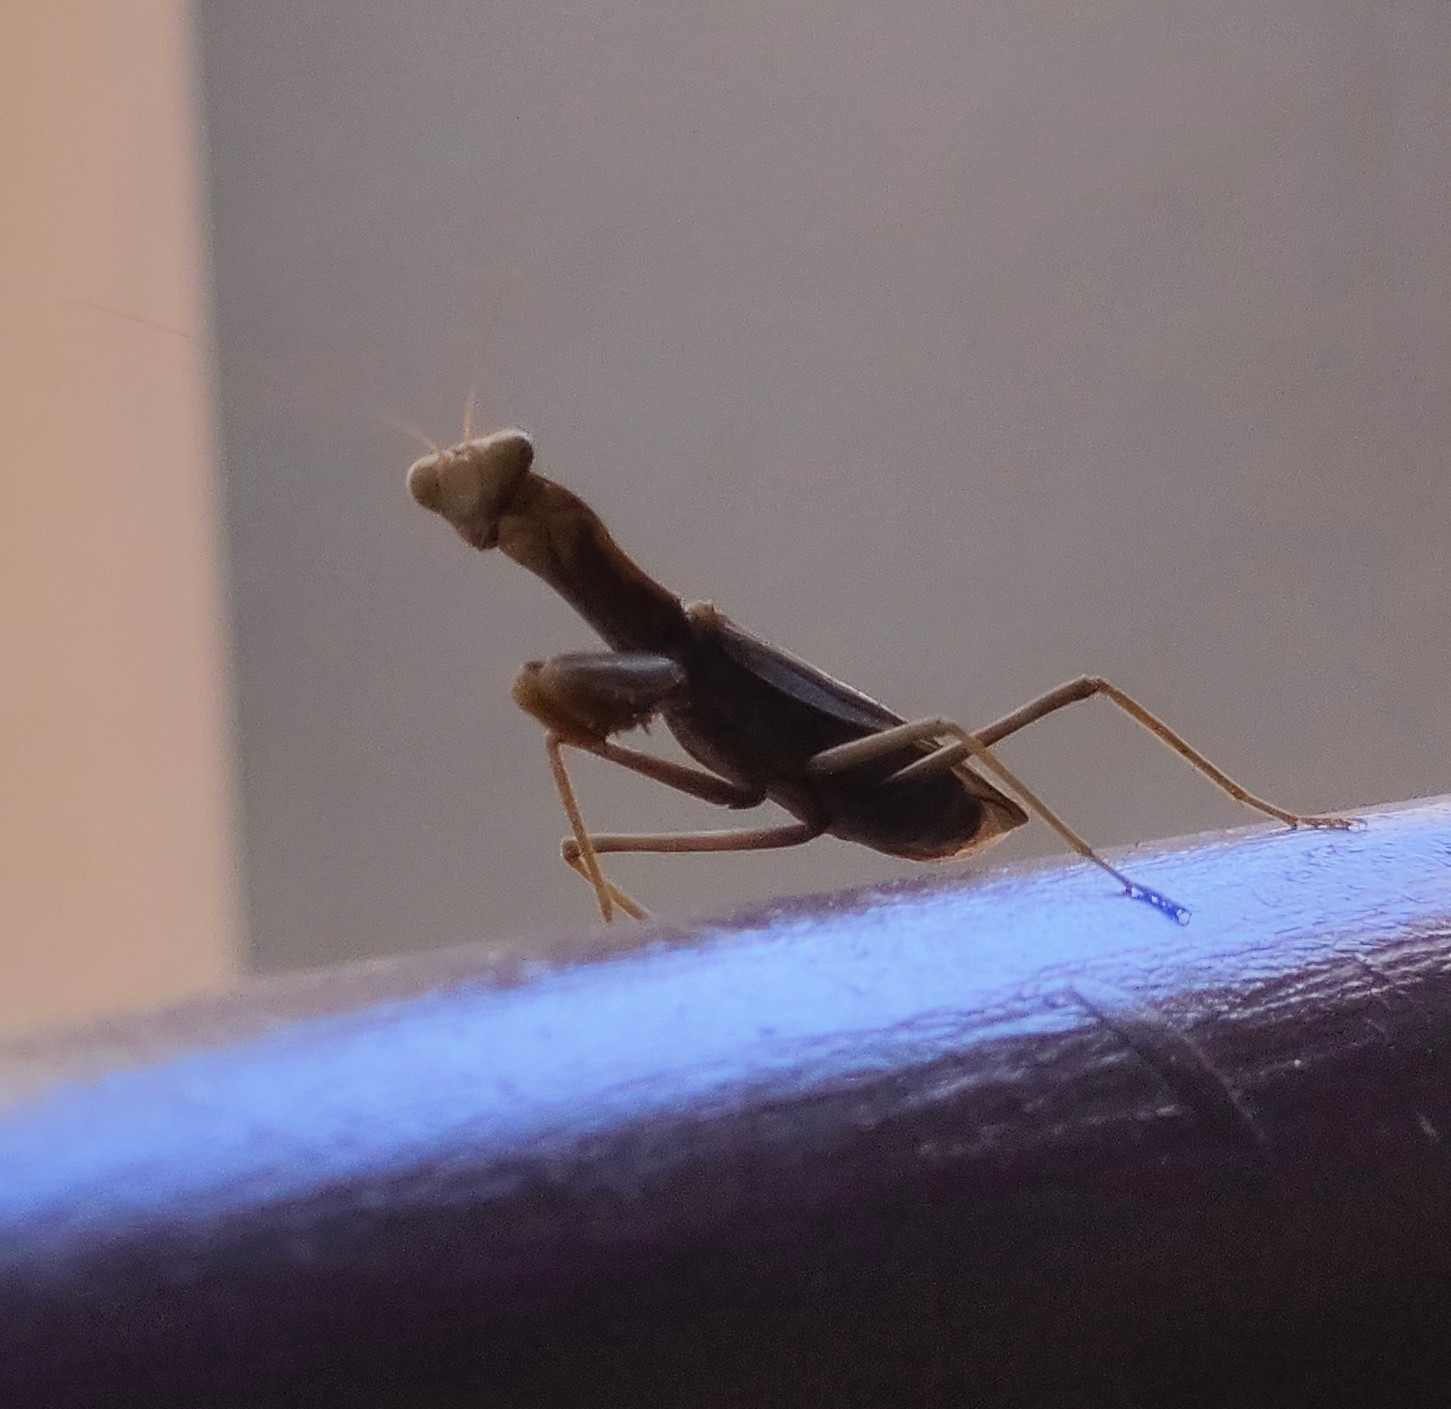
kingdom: Animalia
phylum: Arthropoda
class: Insecta
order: Mantodea
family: Mantidae
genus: Mantis
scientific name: Mantis religiosa
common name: Praying mantis
